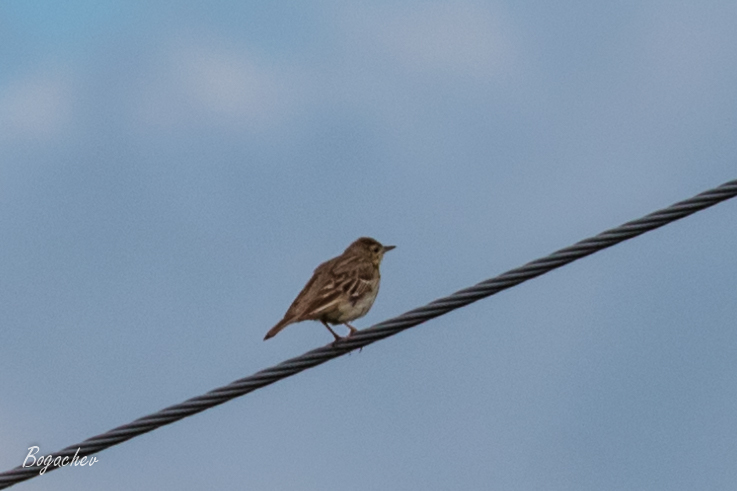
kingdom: Animalia
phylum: Chordata
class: Aves
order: Passeriformes
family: Motacillidae
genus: Anthus
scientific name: Anthus trivialis
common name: Tree pipit
